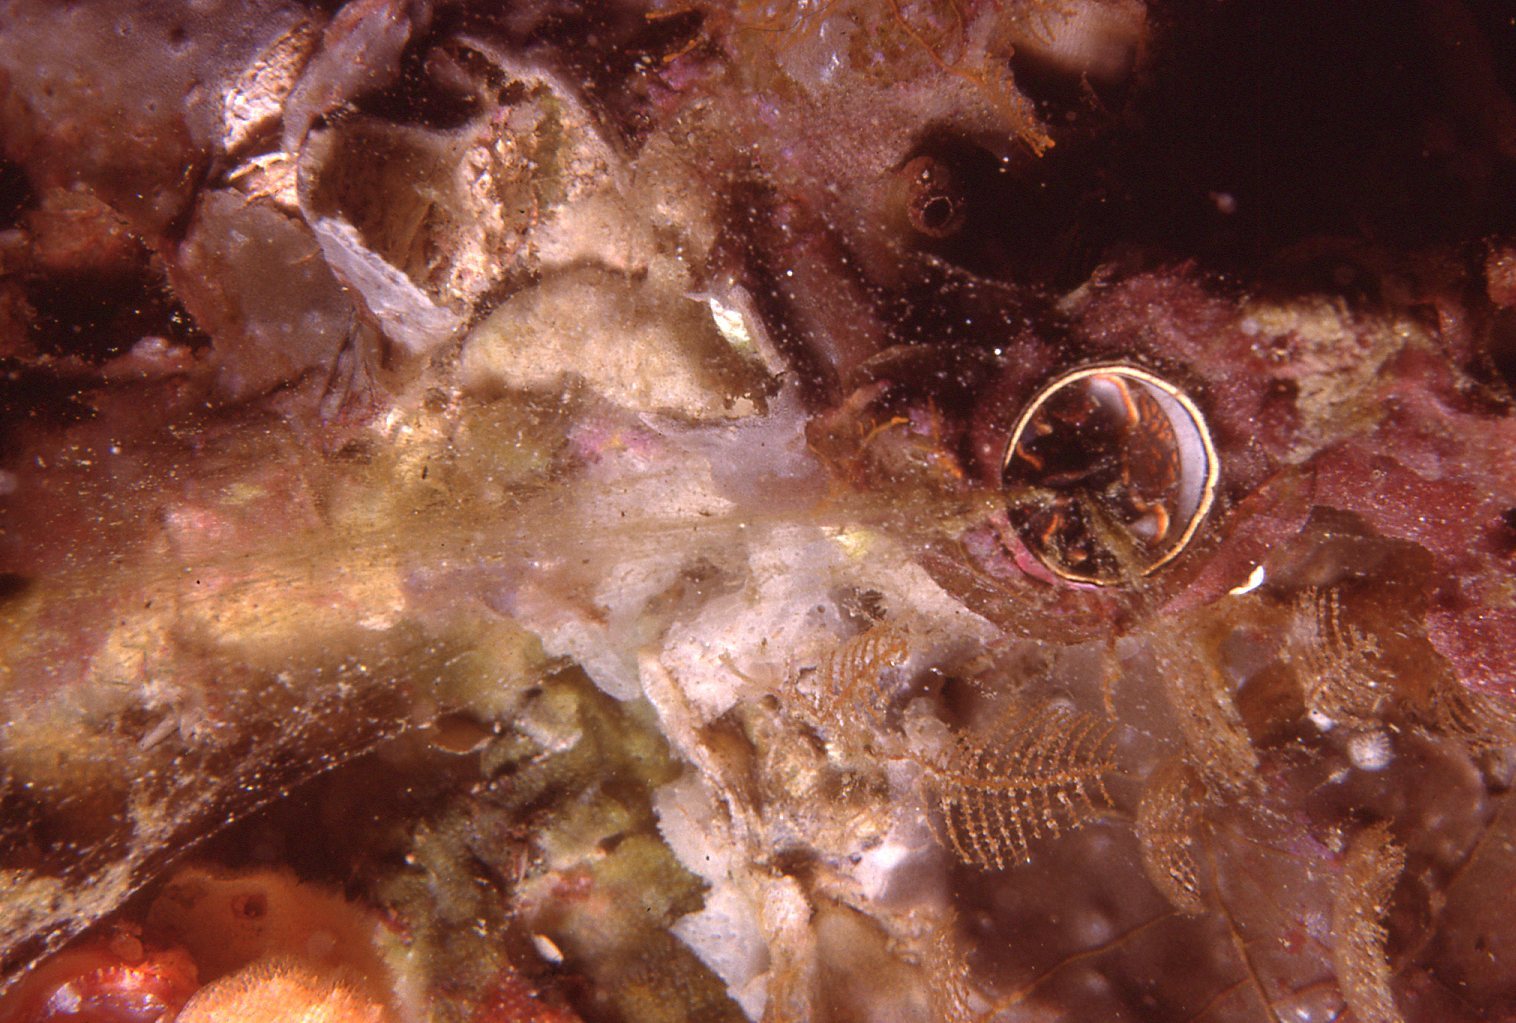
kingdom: Animalia
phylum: Mollusca
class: Gastropoda
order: Littorinimorpha
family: Vermetidae
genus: Thylacodes
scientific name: Thylacodes sipho
